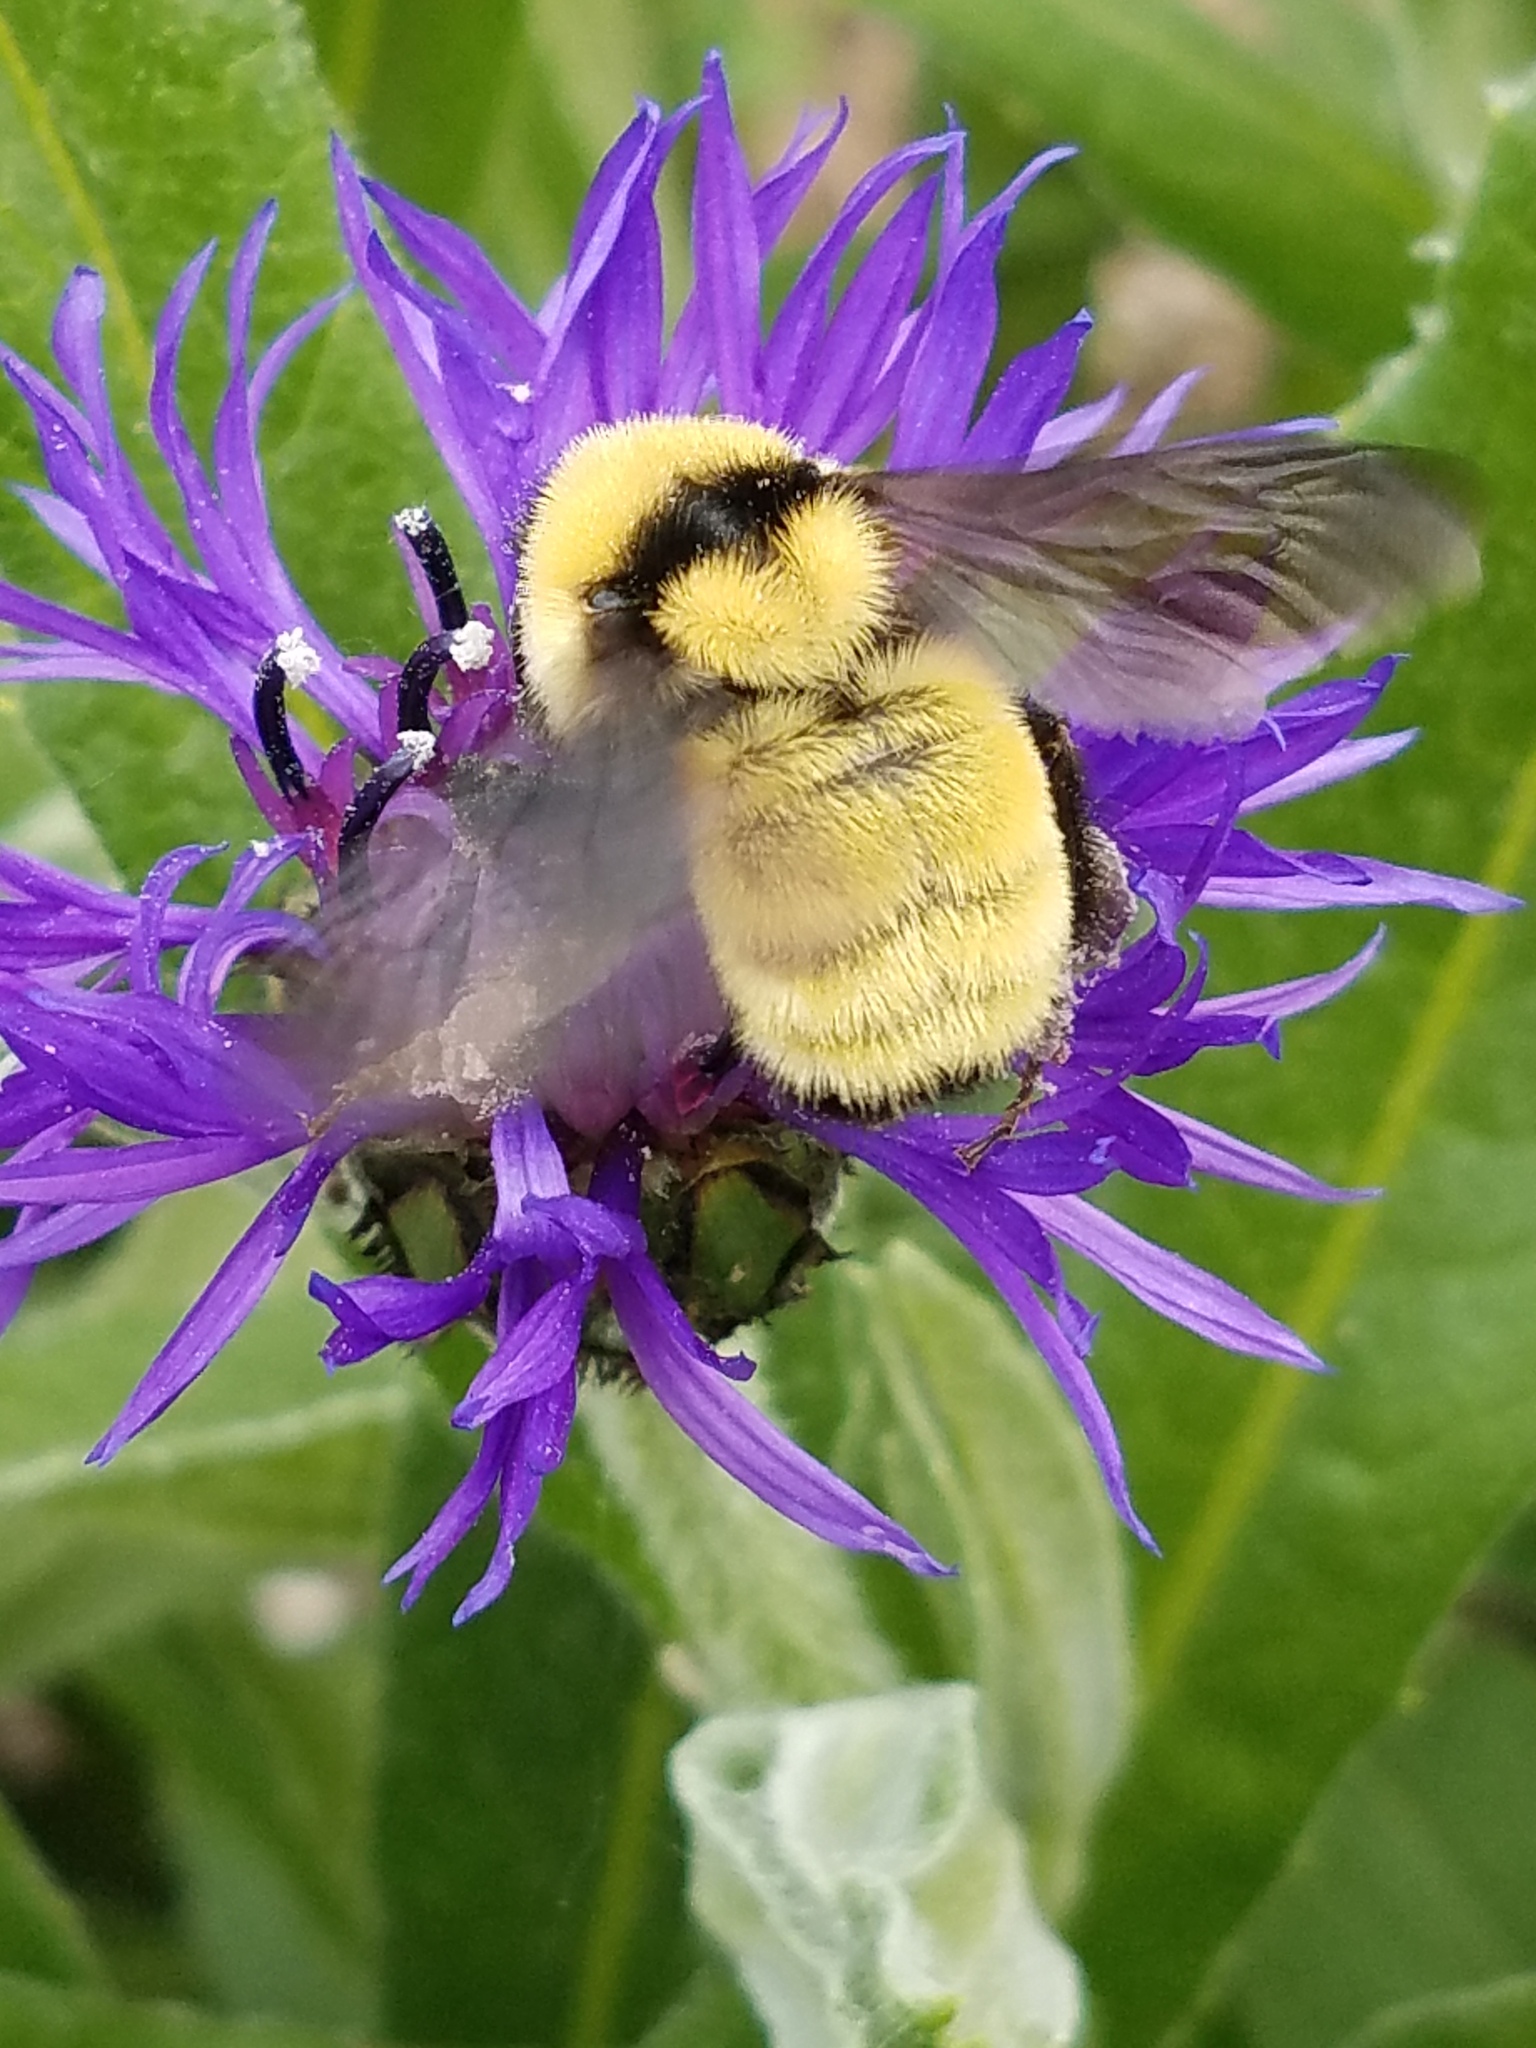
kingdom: Animalia
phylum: Arthropoda
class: Insecta
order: Hymenoptera
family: Apidae
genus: Bombus
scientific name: Bombus fervidus
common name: Yellow bumble bee
